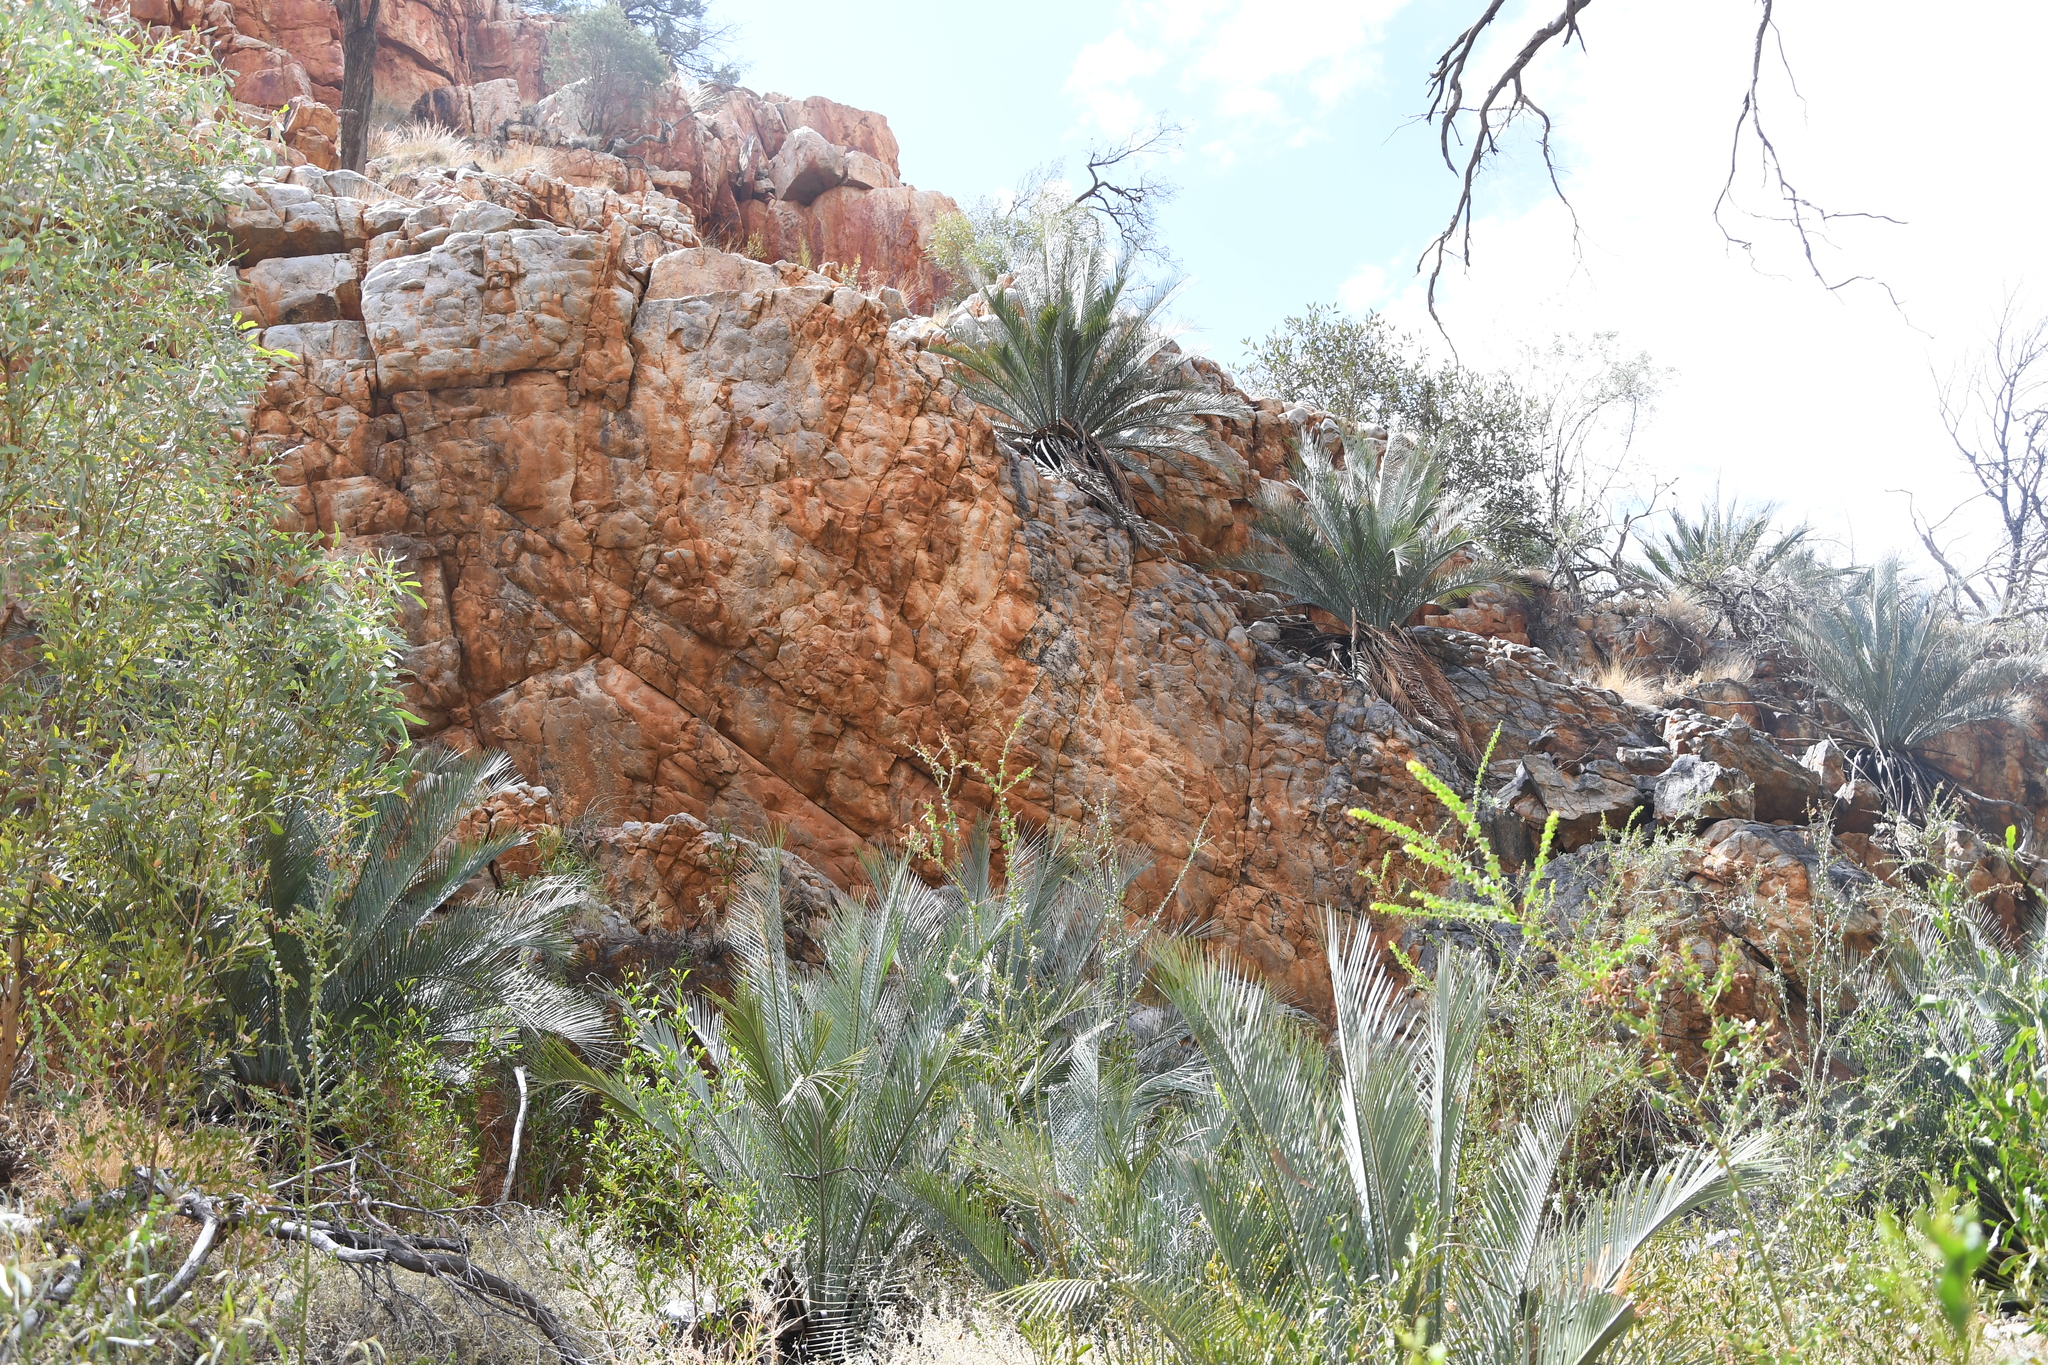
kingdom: Plantae
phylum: Tracheophyta
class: Cycadopsida
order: Cycadales
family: Zamiaceae
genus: Macrozamia
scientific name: Macrozamia macdonnellii
